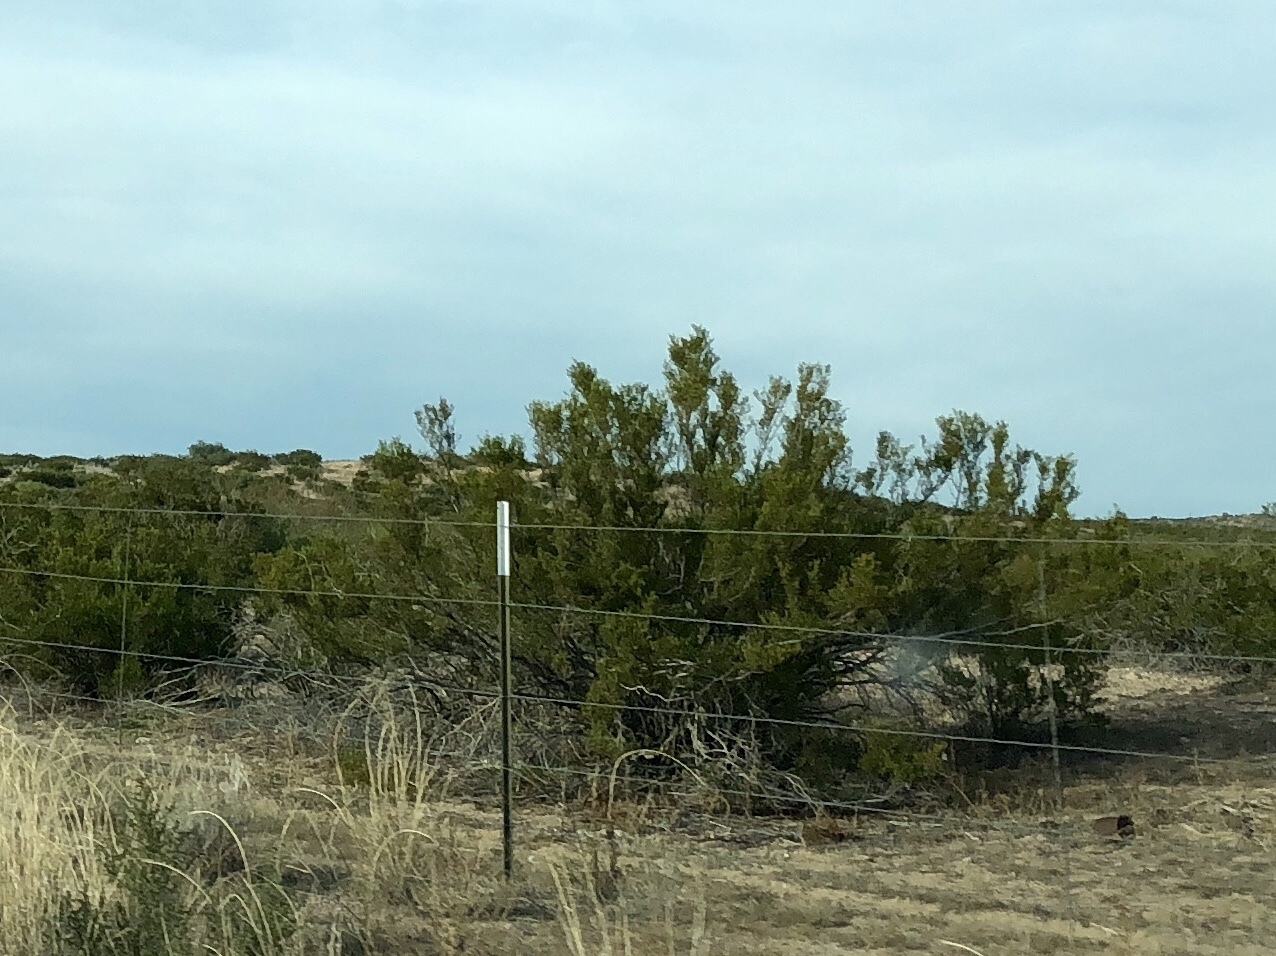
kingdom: Plantae
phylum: Tracheophyta
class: Magnoliopsida
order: Zygophyllales
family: Zygophyllaceae
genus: Larrea
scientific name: Larrea tridentata
